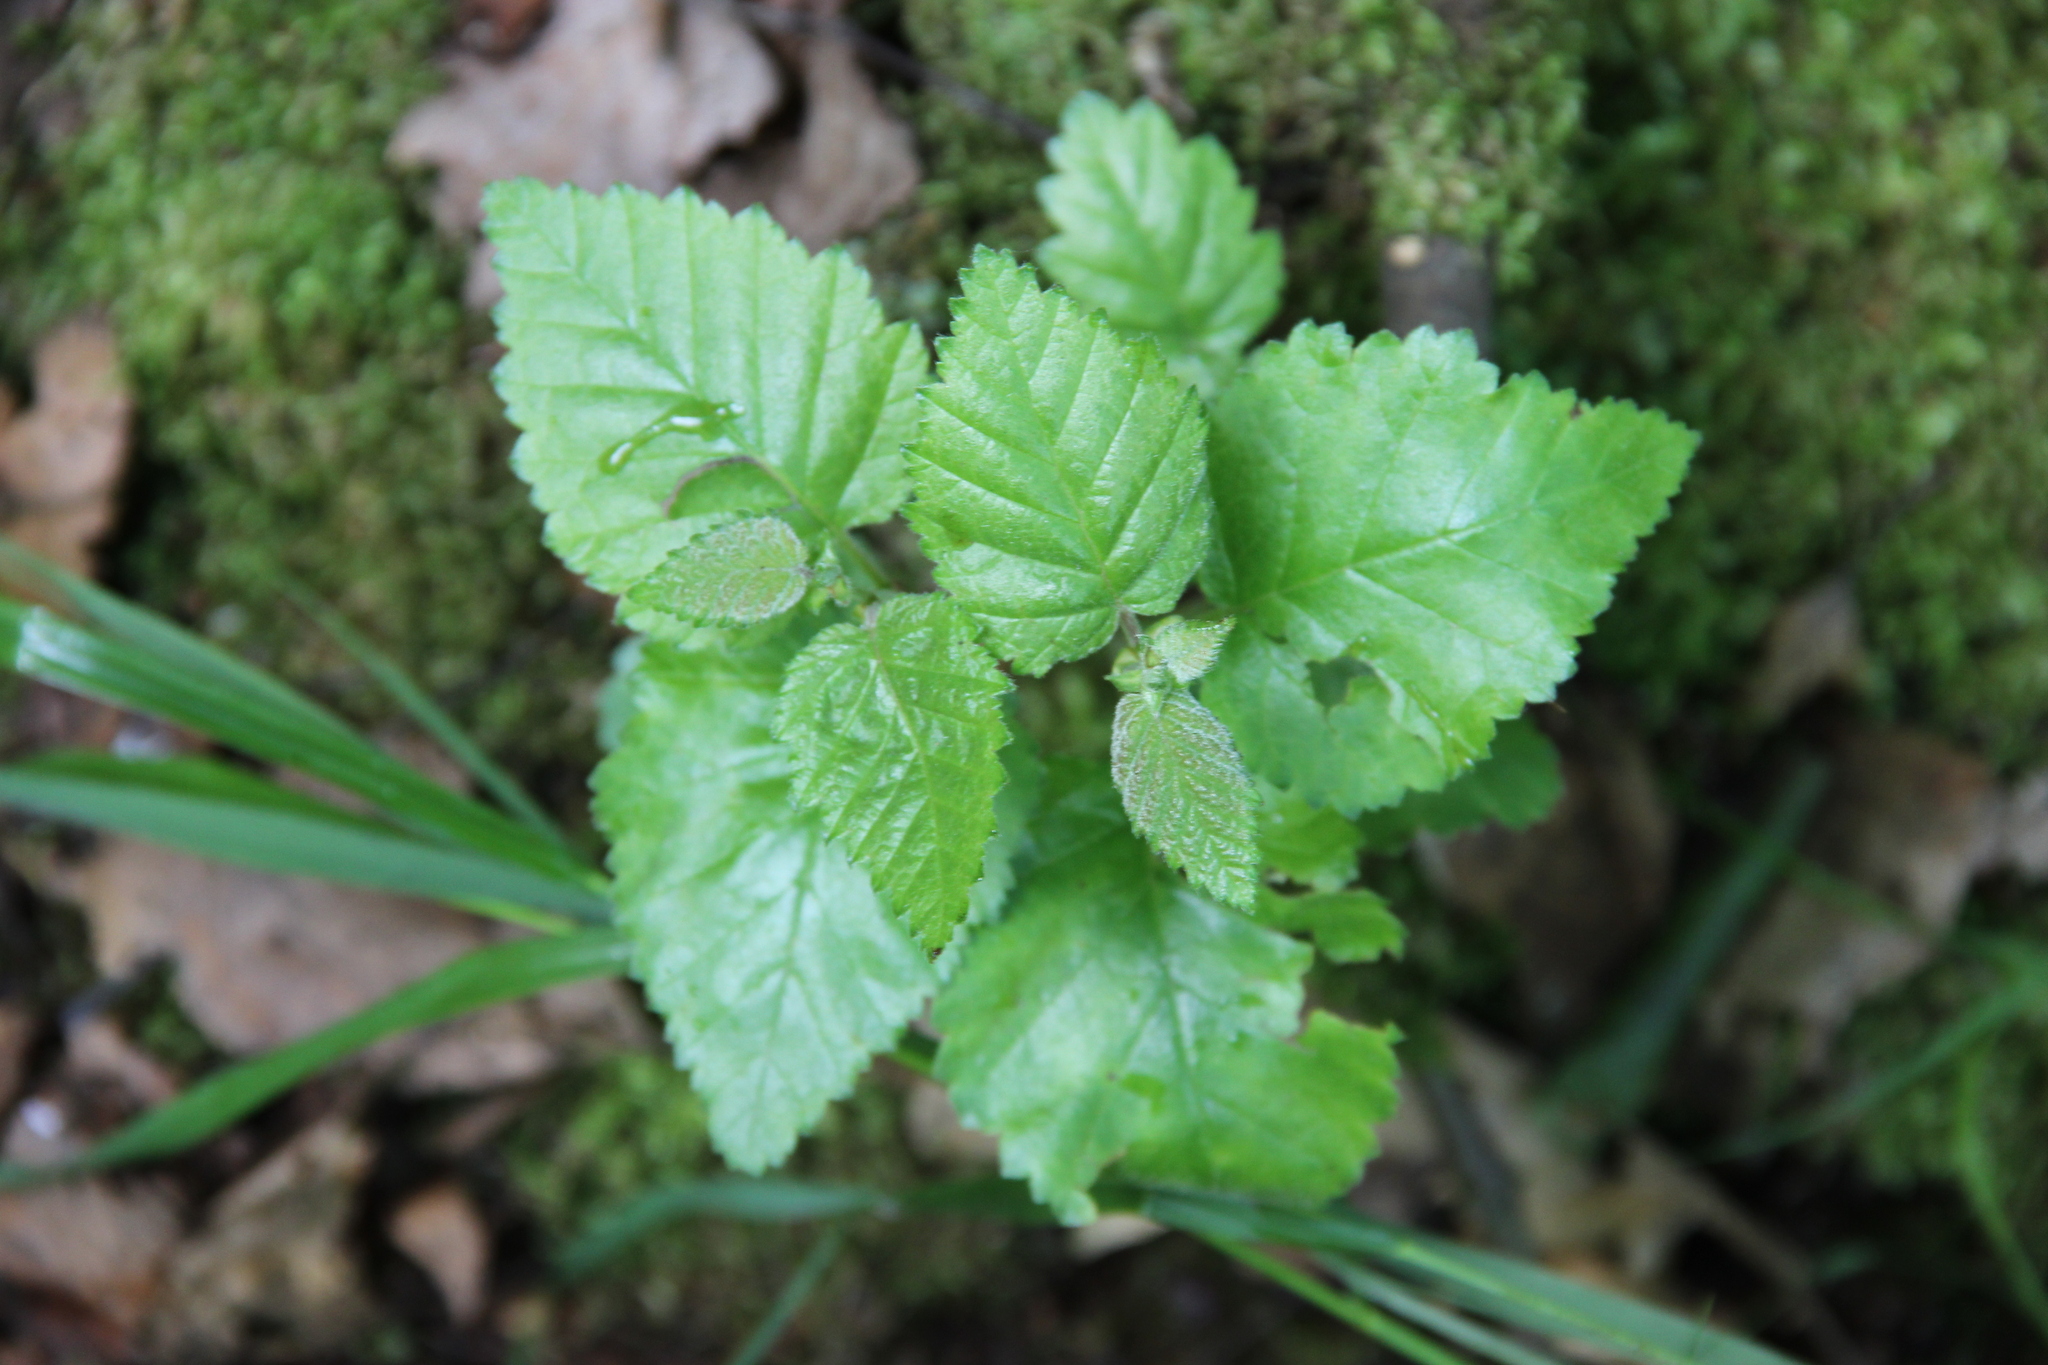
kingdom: Plantae
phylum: Tracheophyta
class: Magnoliopsida
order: Fagales
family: Betulaceae
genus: Betula
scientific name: Betula pubescens
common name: Downy birch
